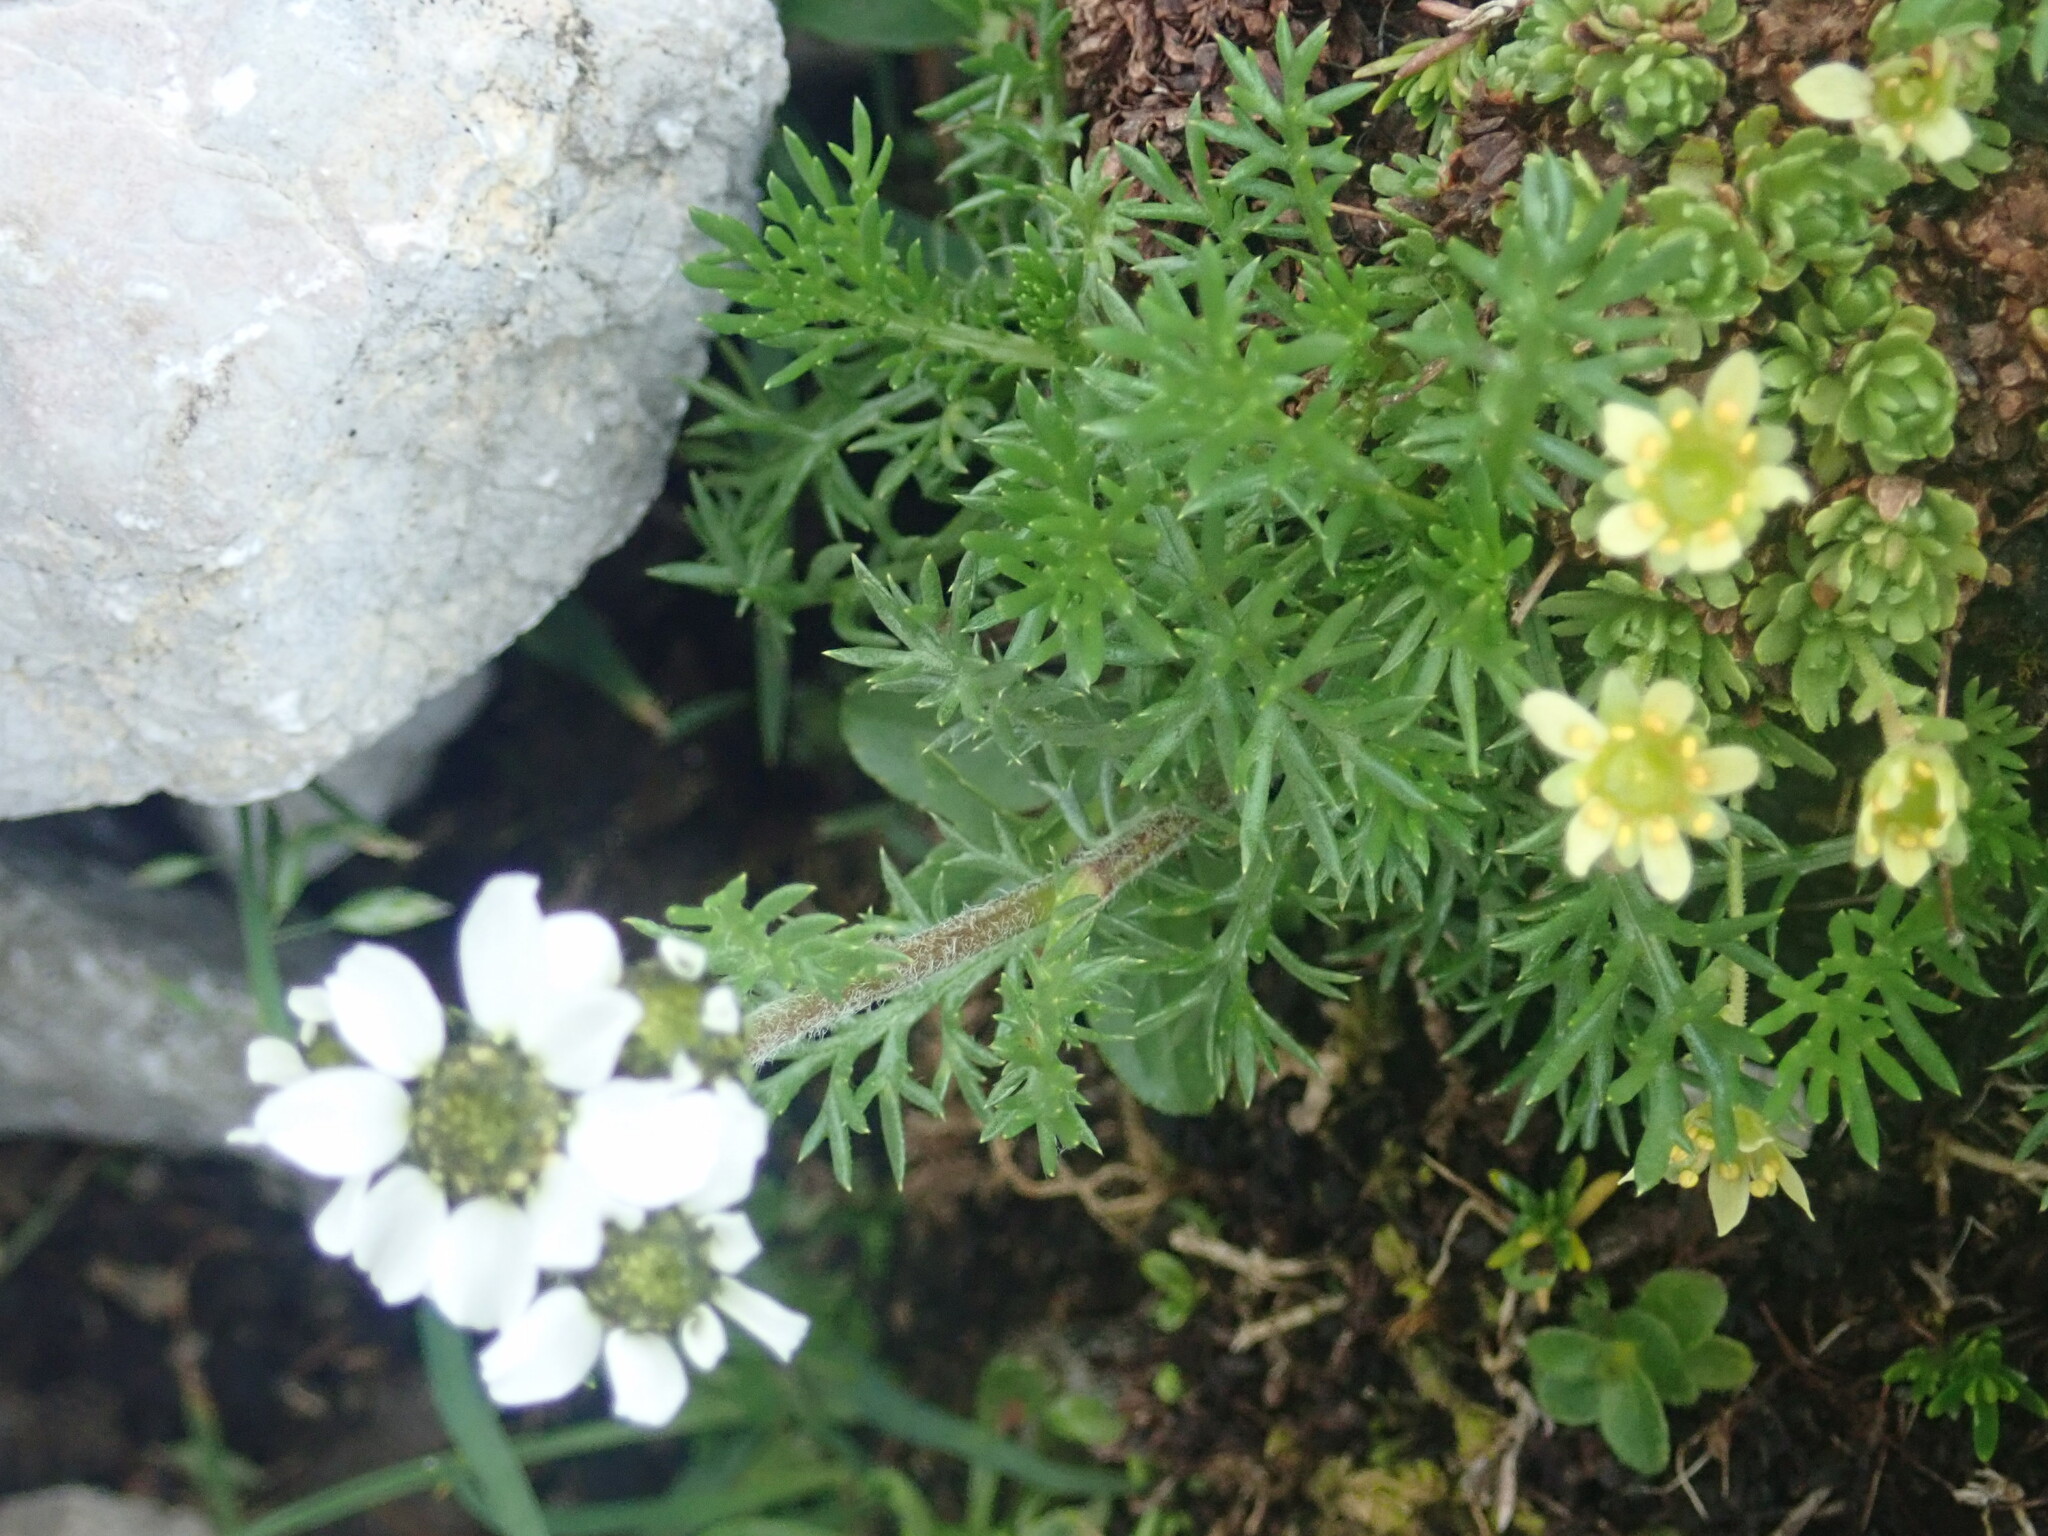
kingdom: Plantae
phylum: Tracheophyta
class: Magnoliopsida
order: Asterales
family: Asteraceae
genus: Achillea
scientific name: Achillea atrata
